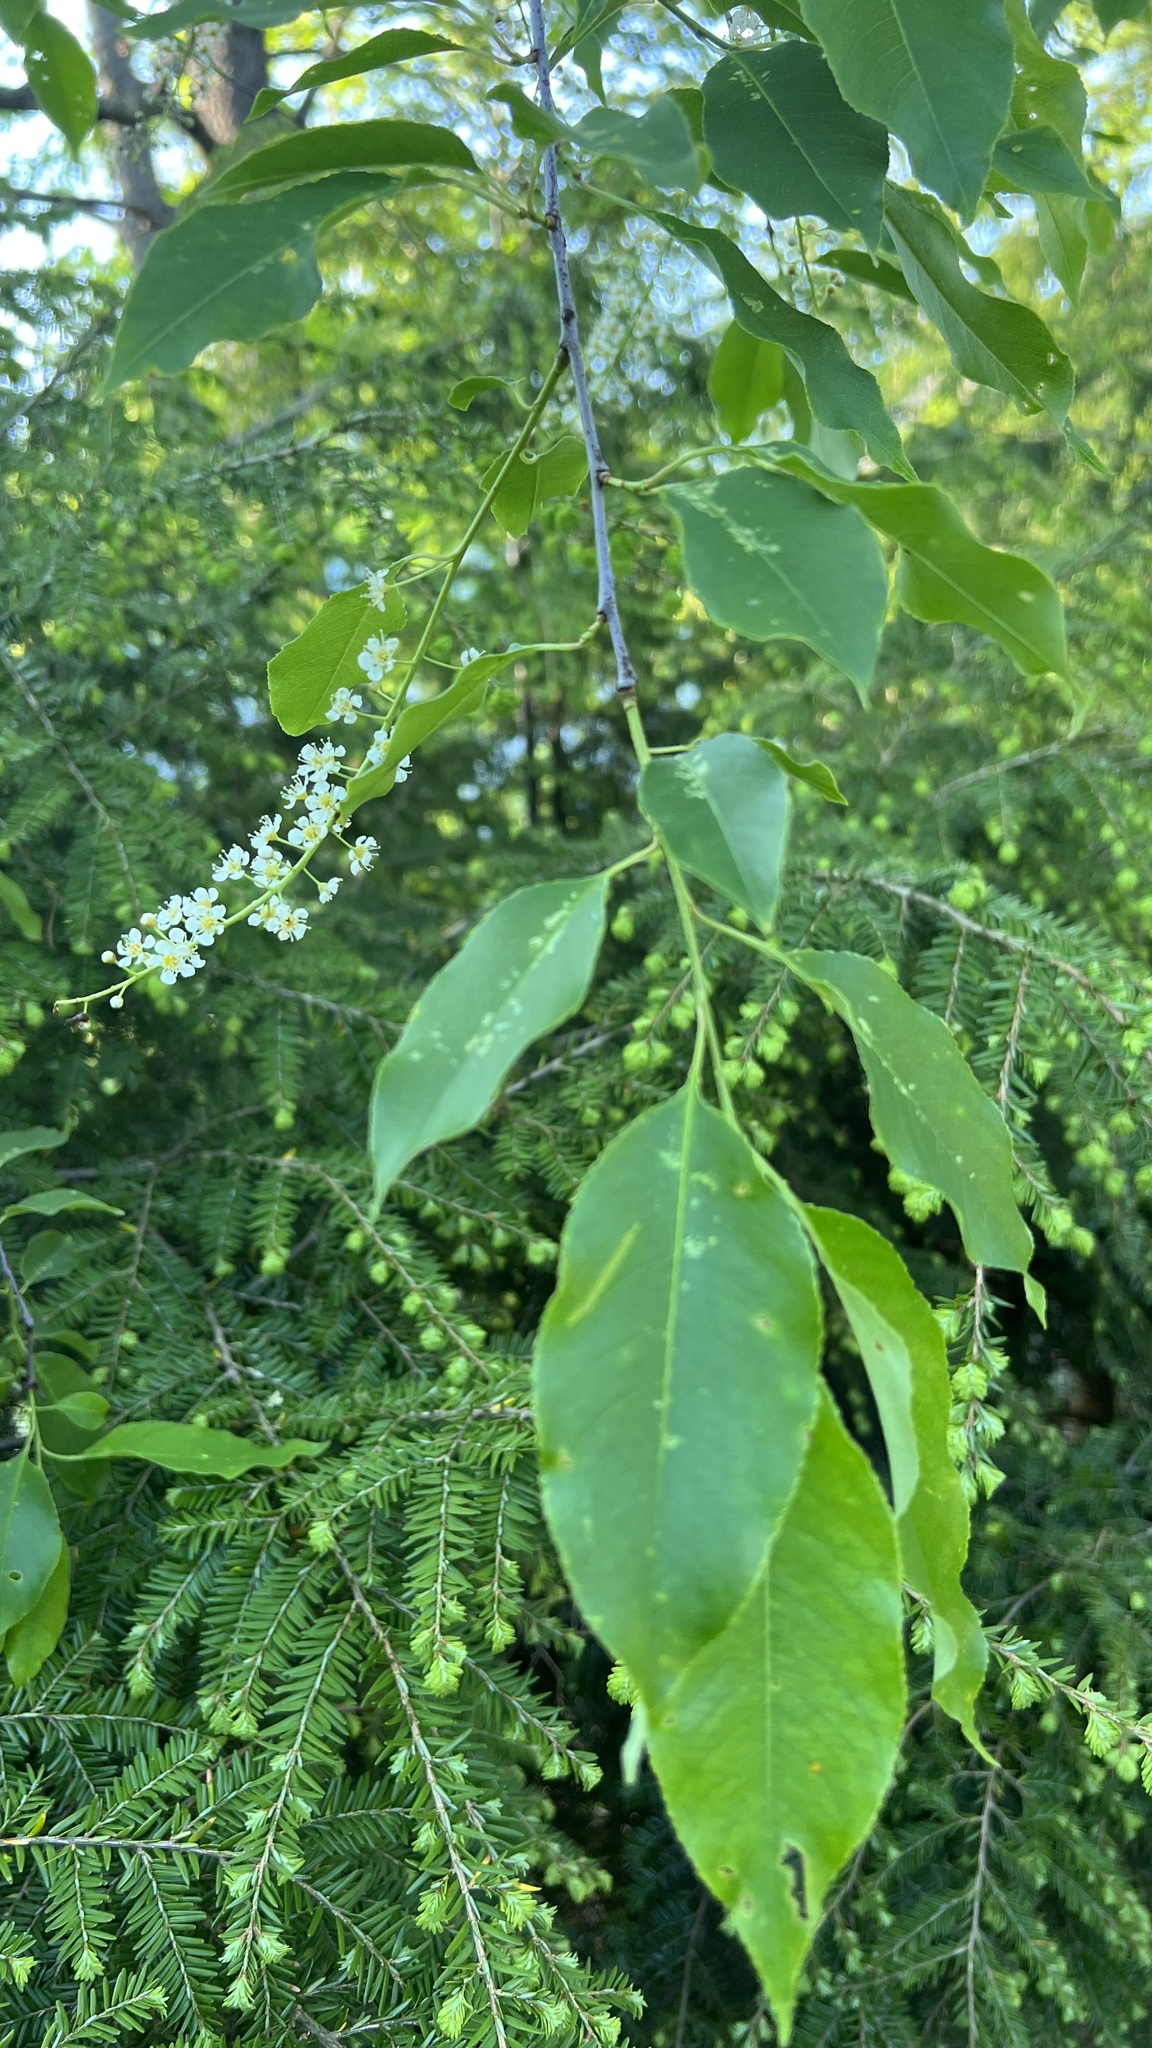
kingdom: Plantae
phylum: Tracheophyta
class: Magnoliopsida
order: Rosales
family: Rosaceae
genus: Prunus
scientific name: Prunus serotina
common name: Black cherry
